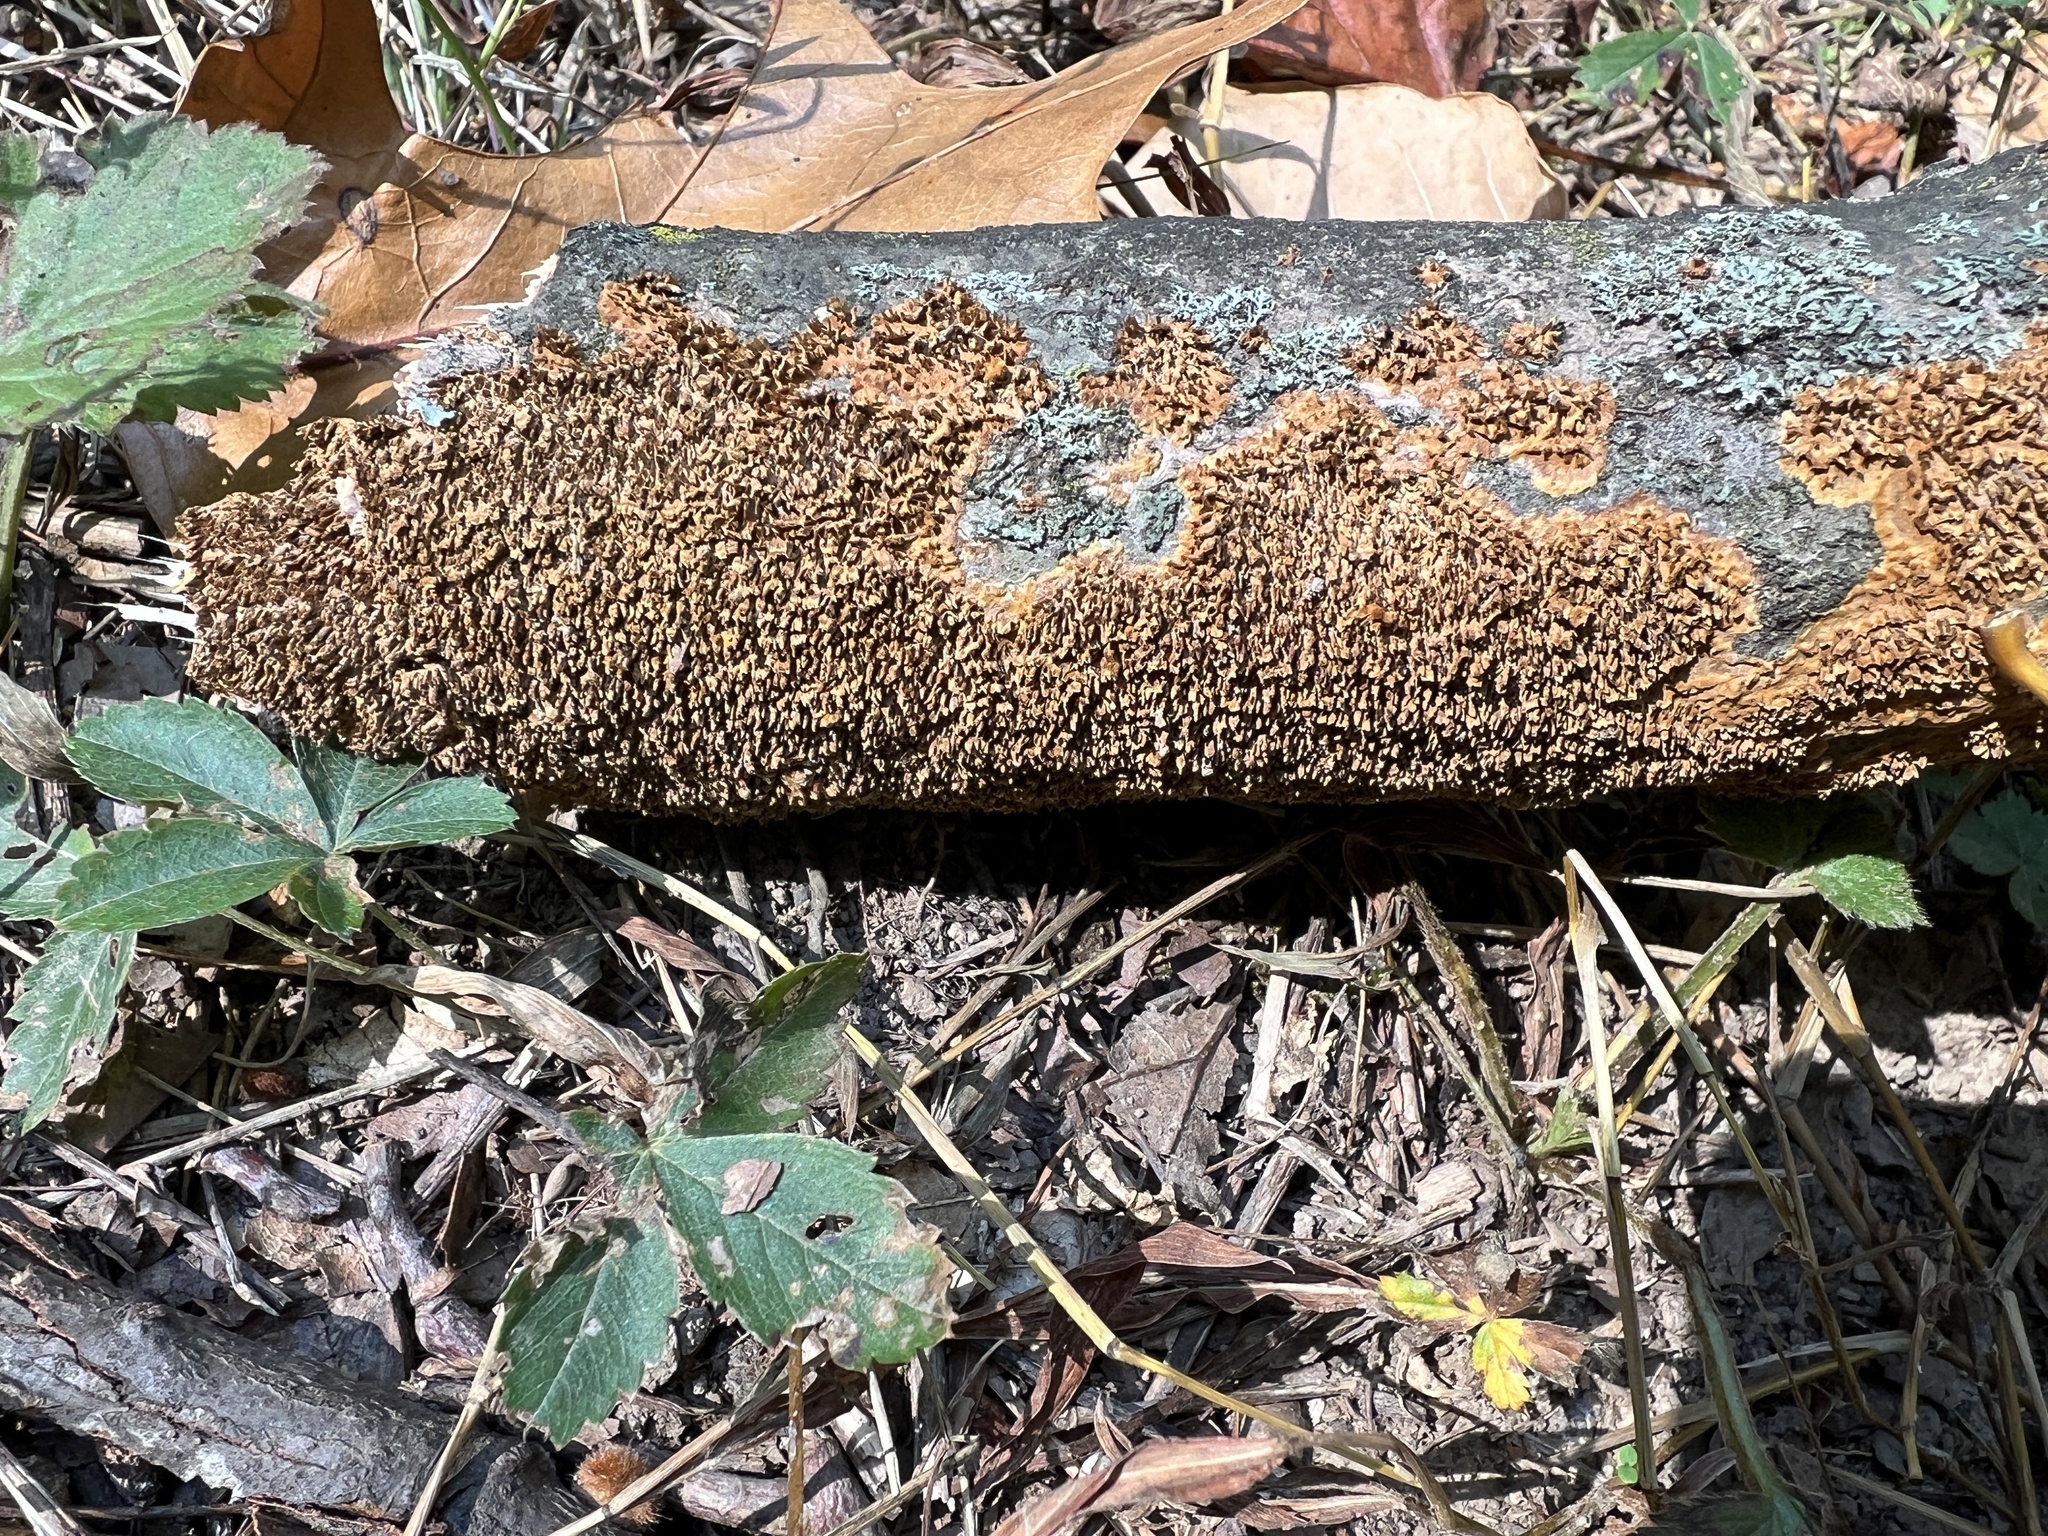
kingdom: Fungi
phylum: Basidiomycota
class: Agaricomycetes
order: Hymenochaetales
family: Hymenochaetaceae
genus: Hydnoporia
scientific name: Hydnoporia olivacea
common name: Brown-toothed crust fungus
